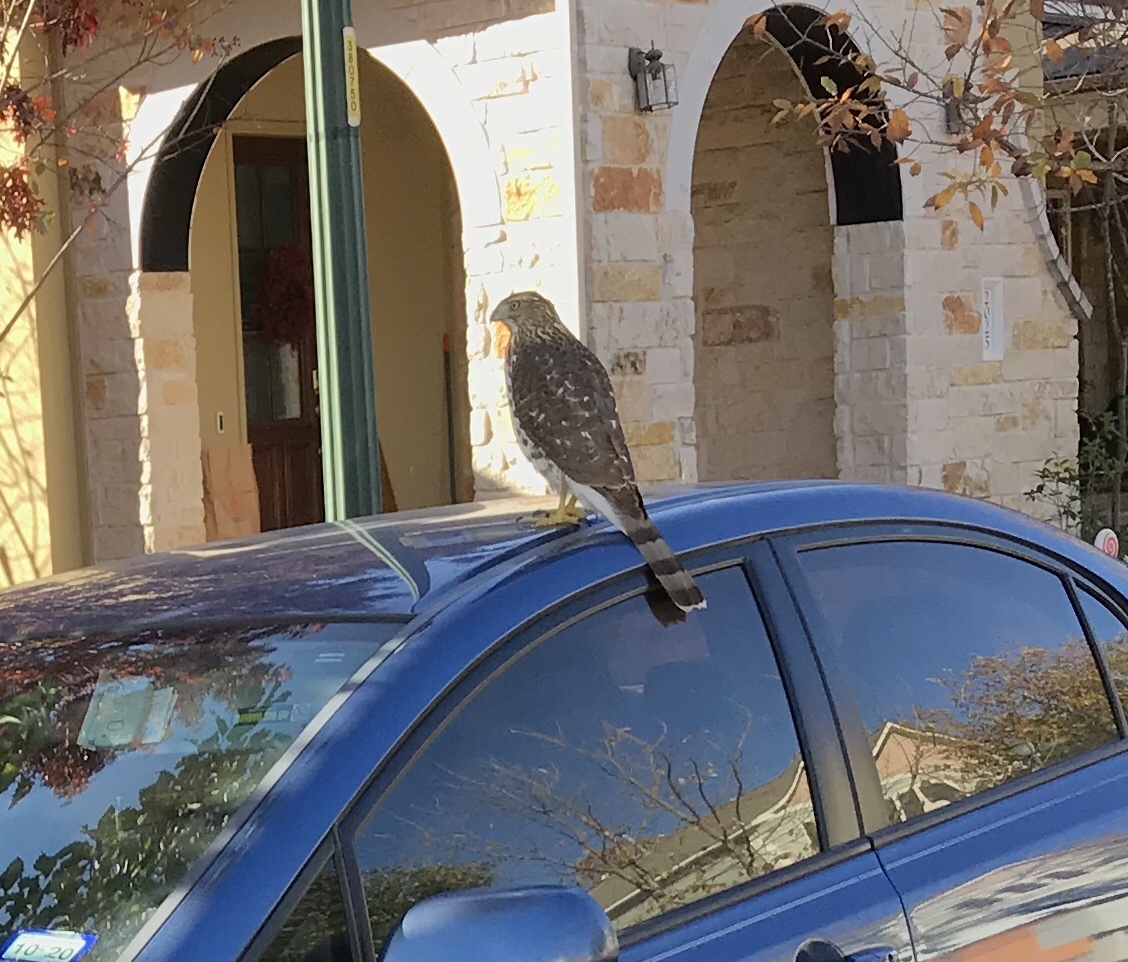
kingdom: Animalia
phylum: Chordata
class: Aves
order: Accipitriformes
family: Accipitridae
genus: Accipiter
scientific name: Accipiter cooperii
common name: Cooper's hawk
